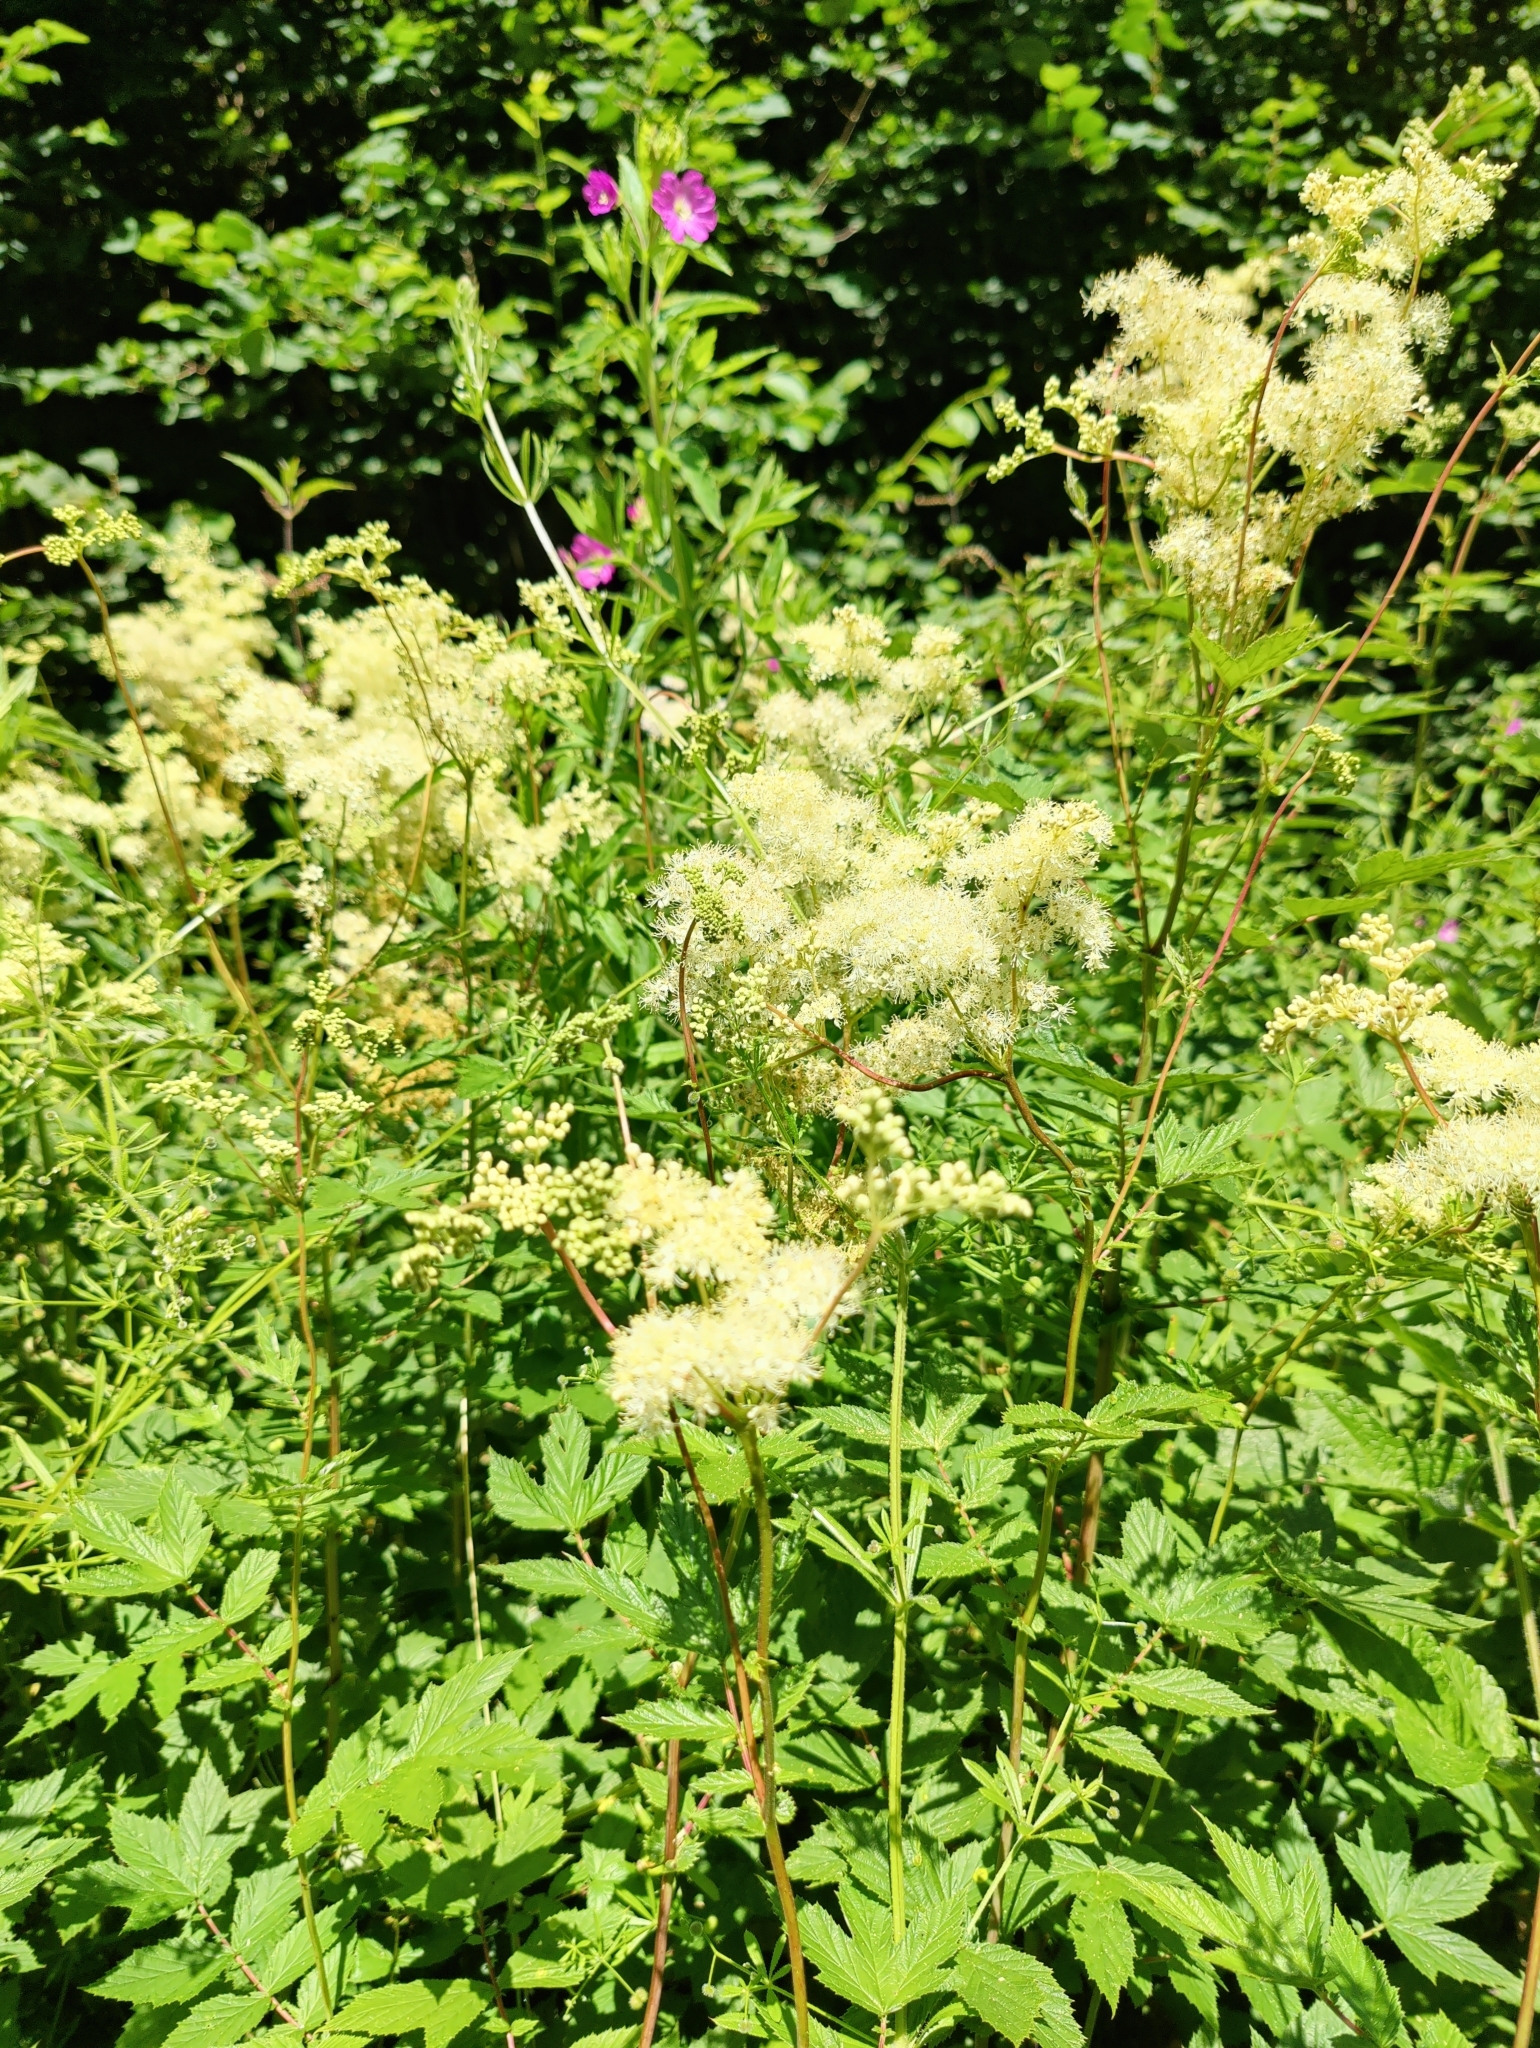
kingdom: Plantae
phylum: Tracheophyta
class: Magnoliopsida
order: Rosales
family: Rosaceae
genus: Filipendula
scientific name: Filipendula ulmaria
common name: Meadowsweet
